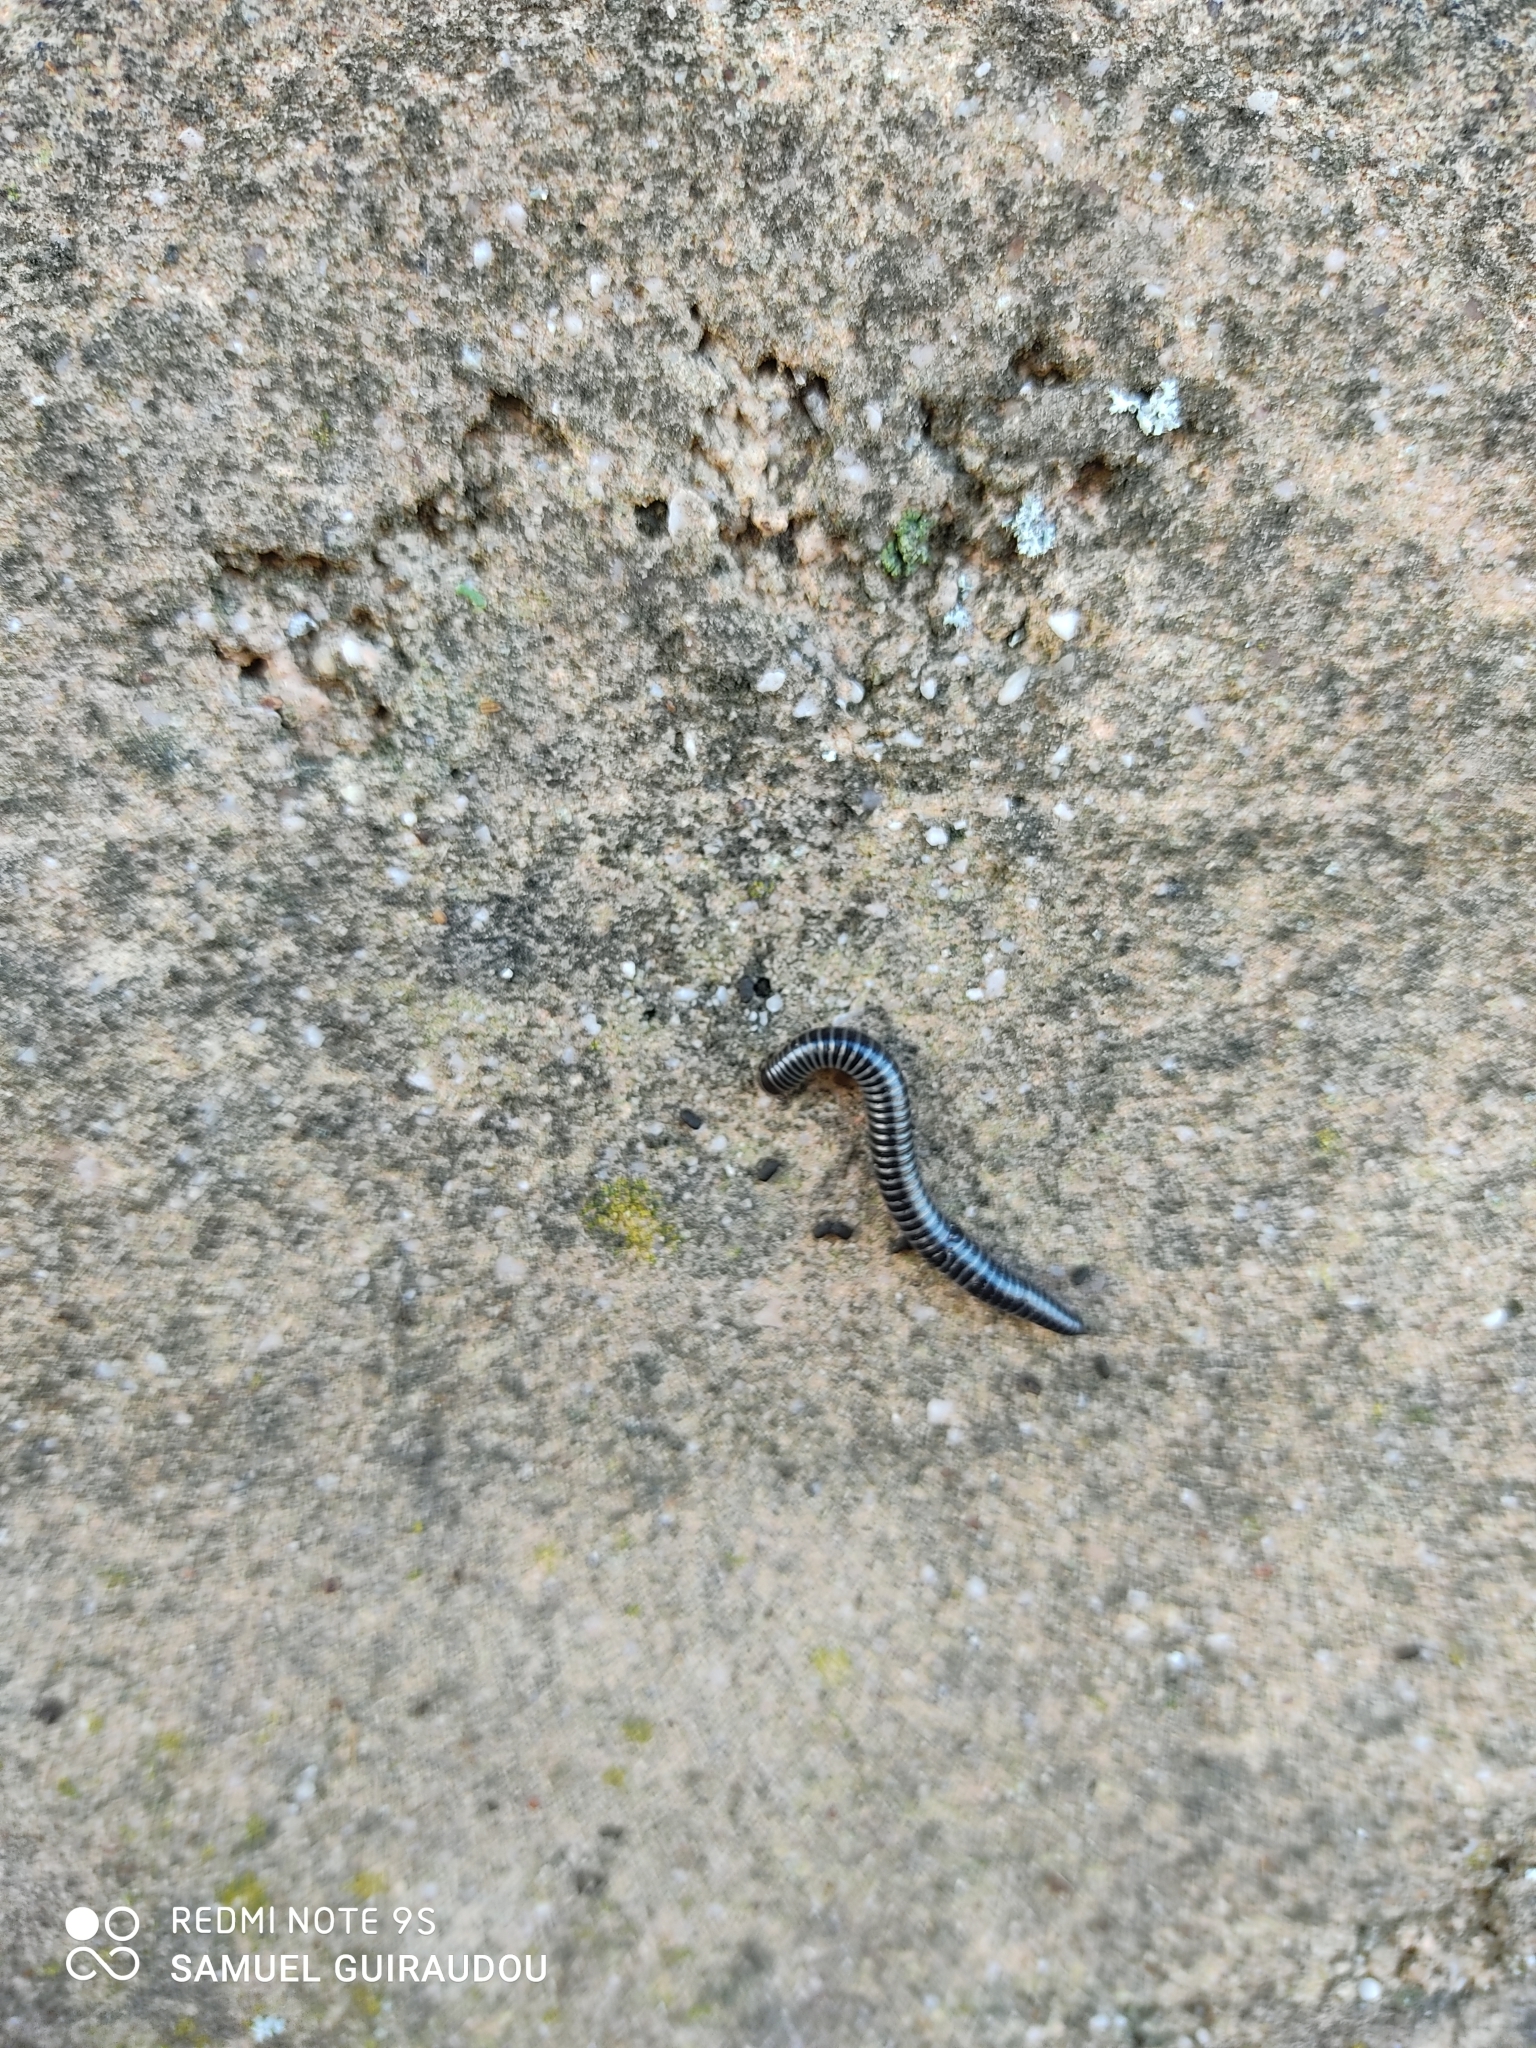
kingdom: Animalia
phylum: Arthropoda
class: Diplopoda
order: Julida
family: Julidae
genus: Ommatoiulus
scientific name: Ommatoiulus sabulosus
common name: Striped millipede
